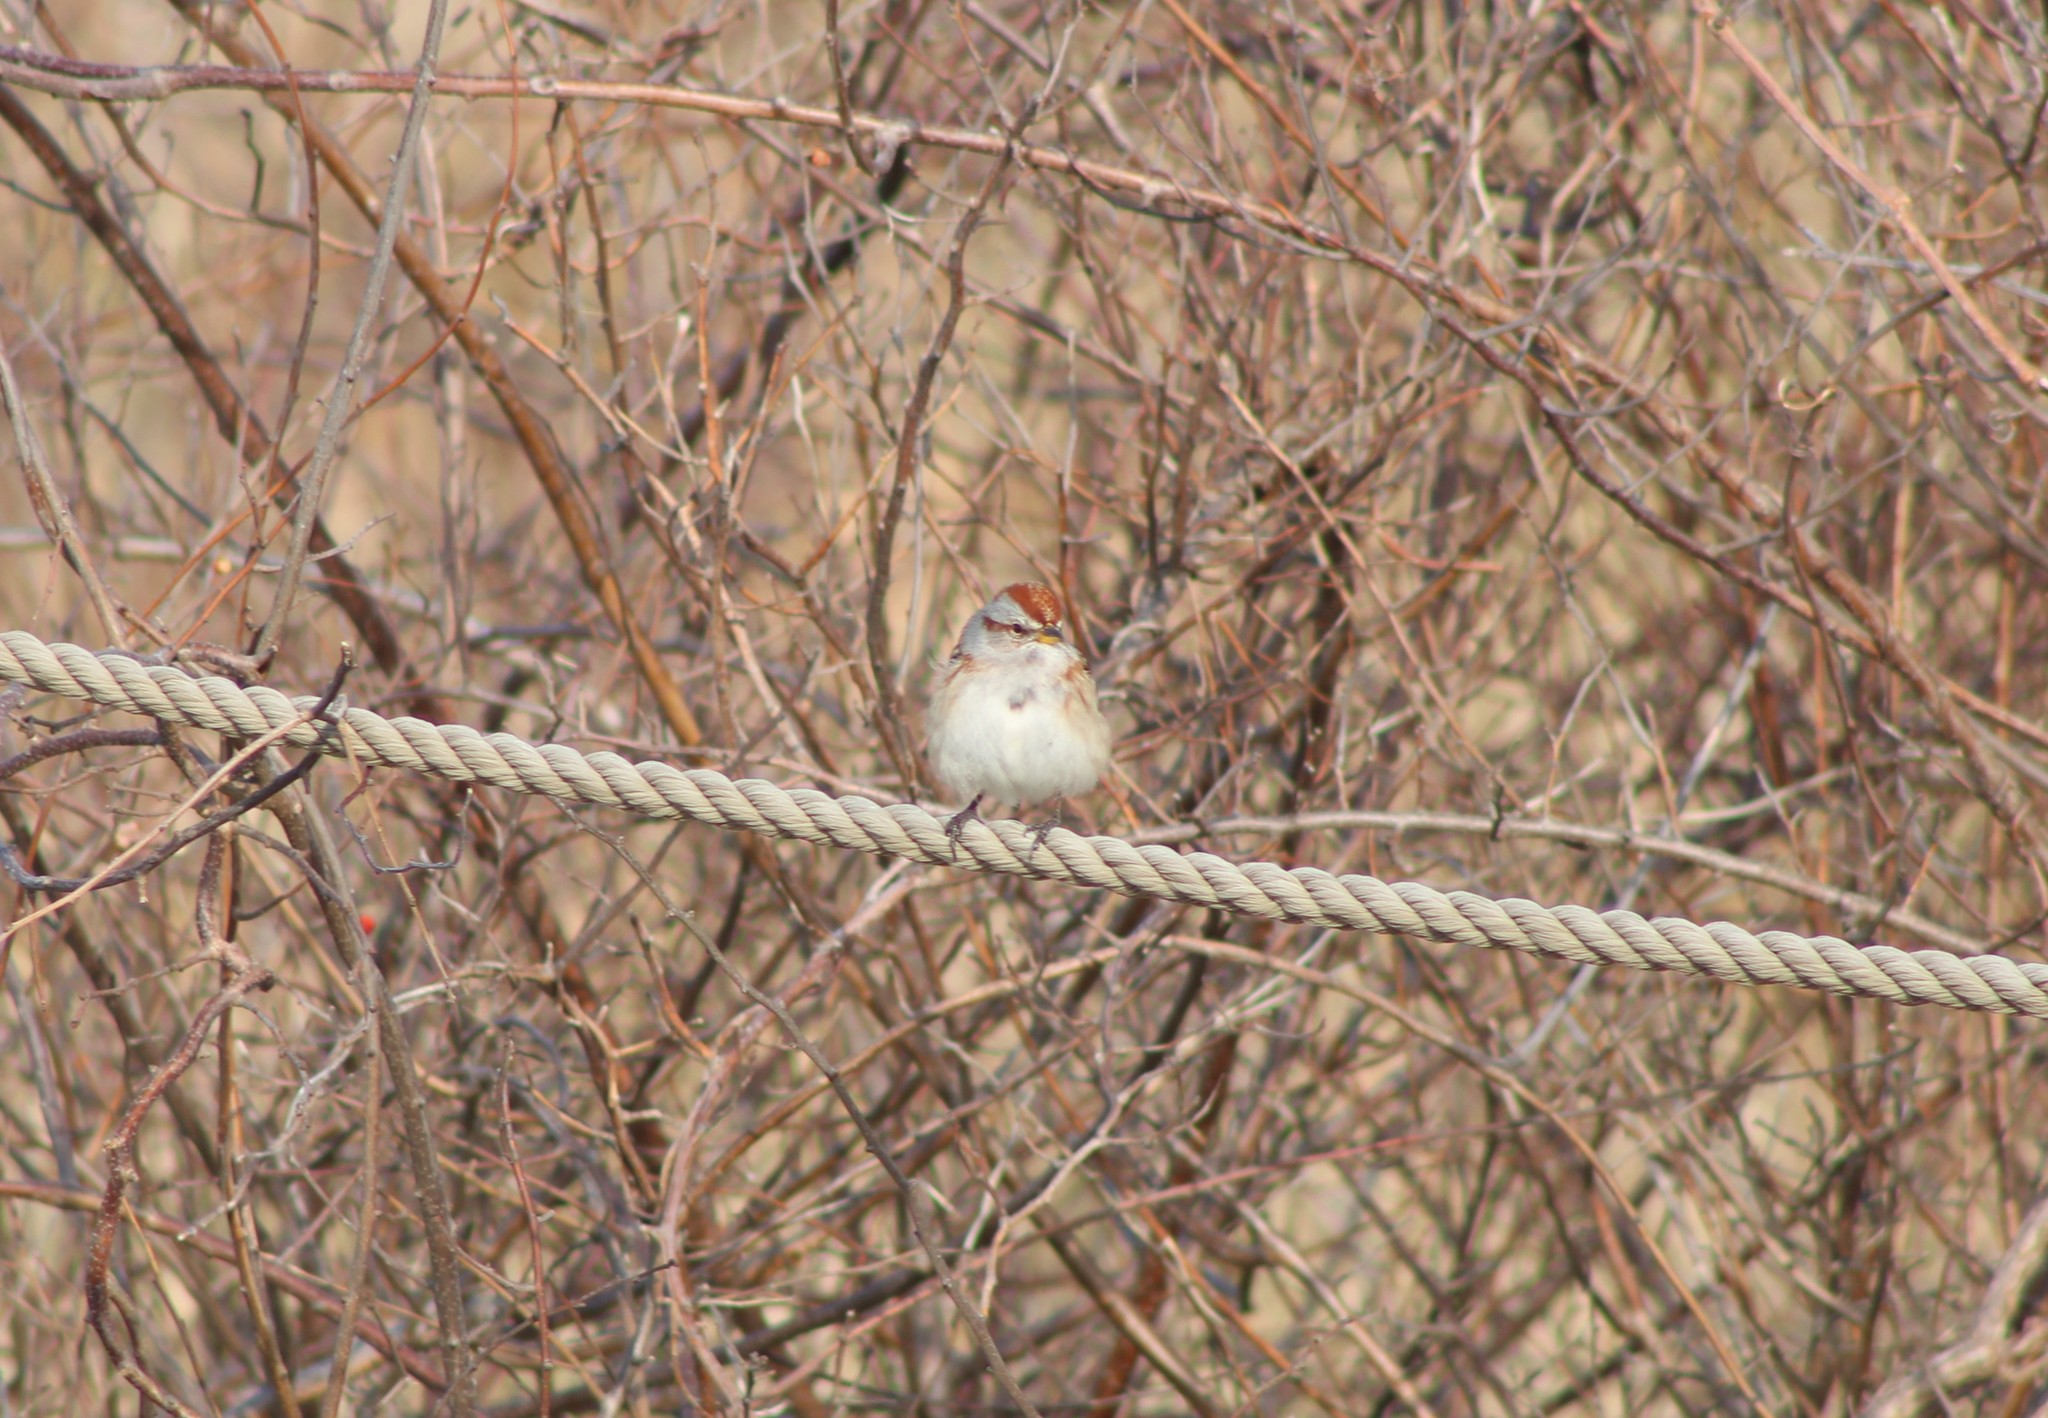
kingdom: Animalia
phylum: Chordata
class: Aves
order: Passeriformes
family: Passerellidae
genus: Spizelloides
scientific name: Spizelloides arborea
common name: American tree sparrow
